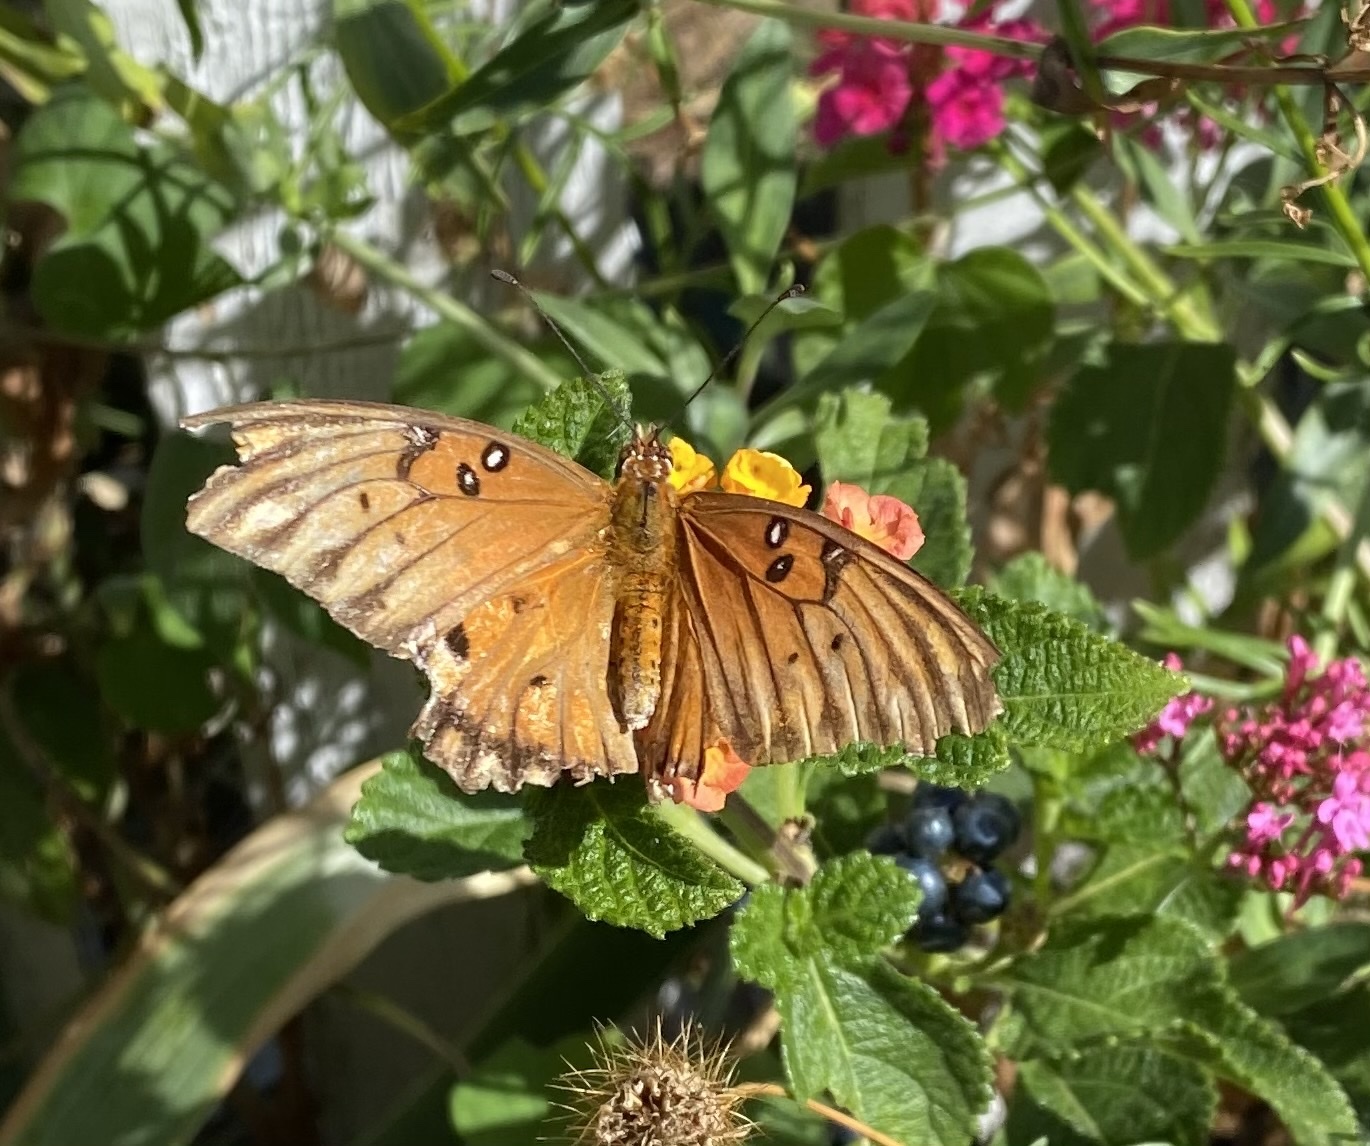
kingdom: Animalia
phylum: Arthropoda
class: Insecta
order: Lepidoptera
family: Nymphalidae
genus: Dione
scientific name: Dione vanillae
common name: Gulf fritillary
